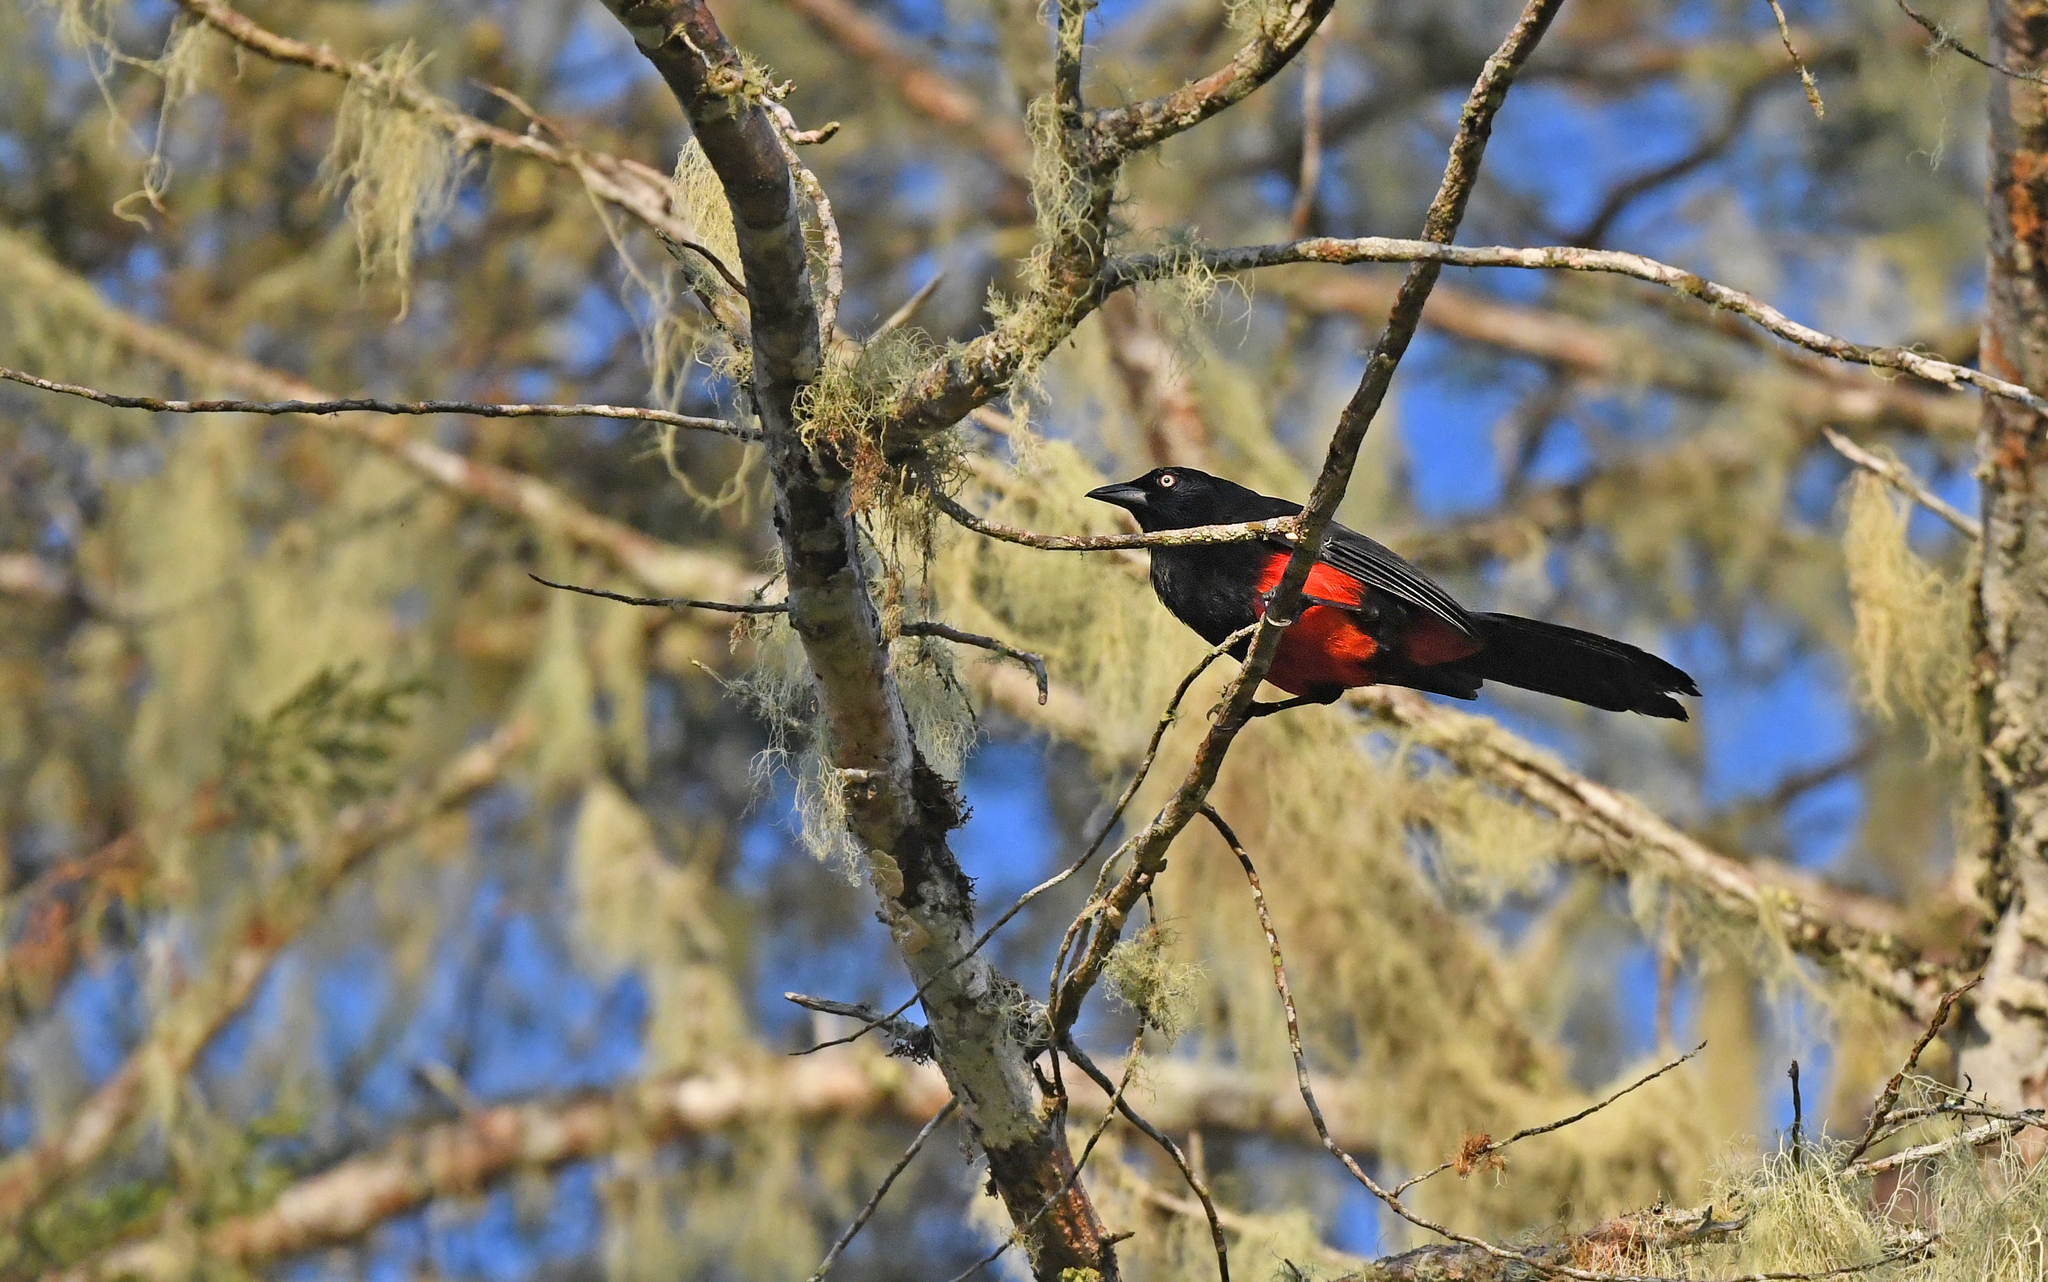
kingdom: Animalia
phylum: Chordata
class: Aves
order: Passeriformes
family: Icteridae
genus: Hypopyrrhus
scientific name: Hypopyrrhus pyrohypogaster
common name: Red-bellied grackle
